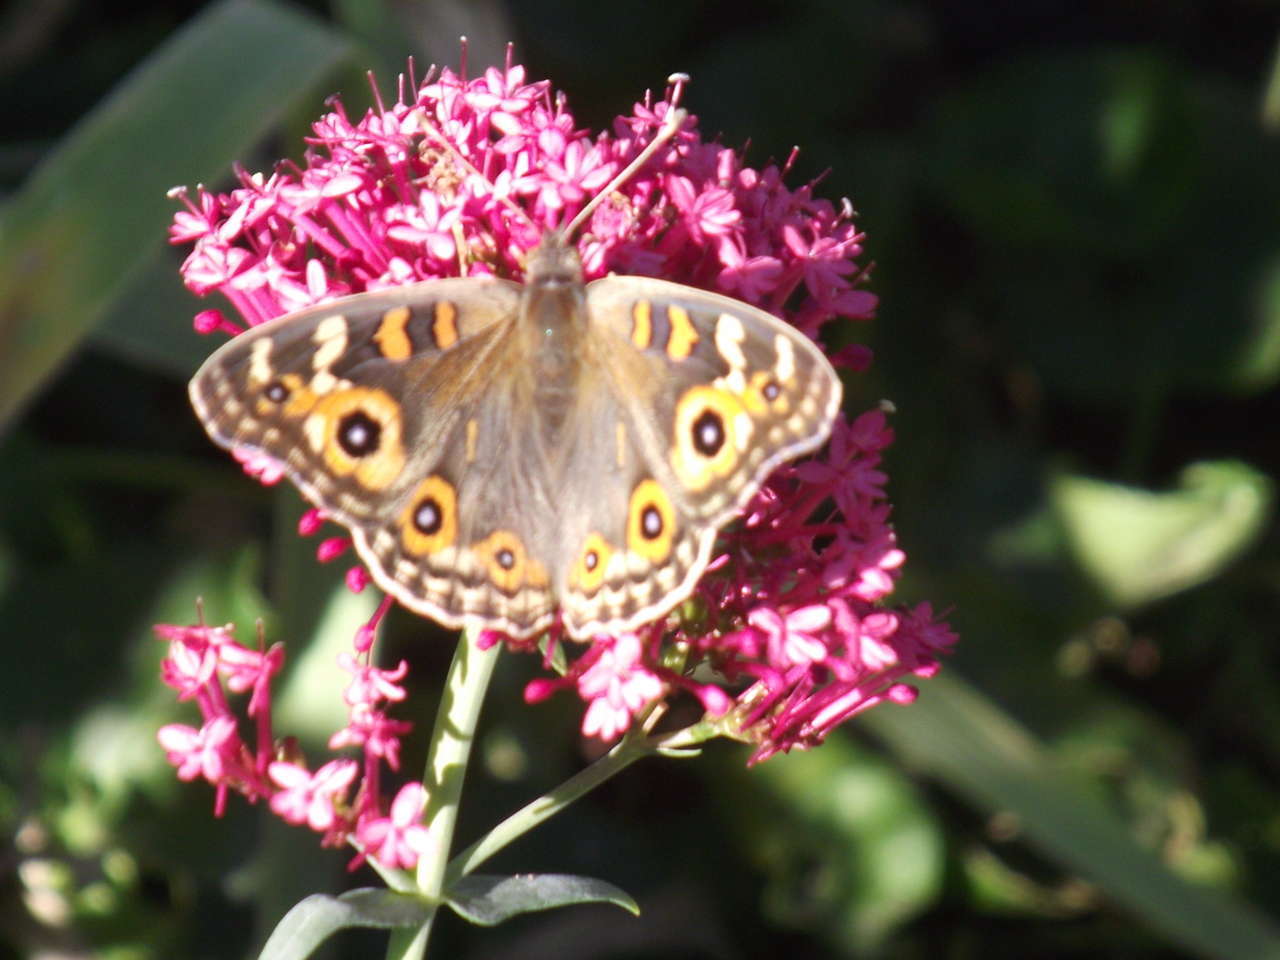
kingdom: Animalia
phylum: Arthropoda
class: Insecta
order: Lepidoptera
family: Nymphalidae
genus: Junonia
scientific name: Junonia villida
